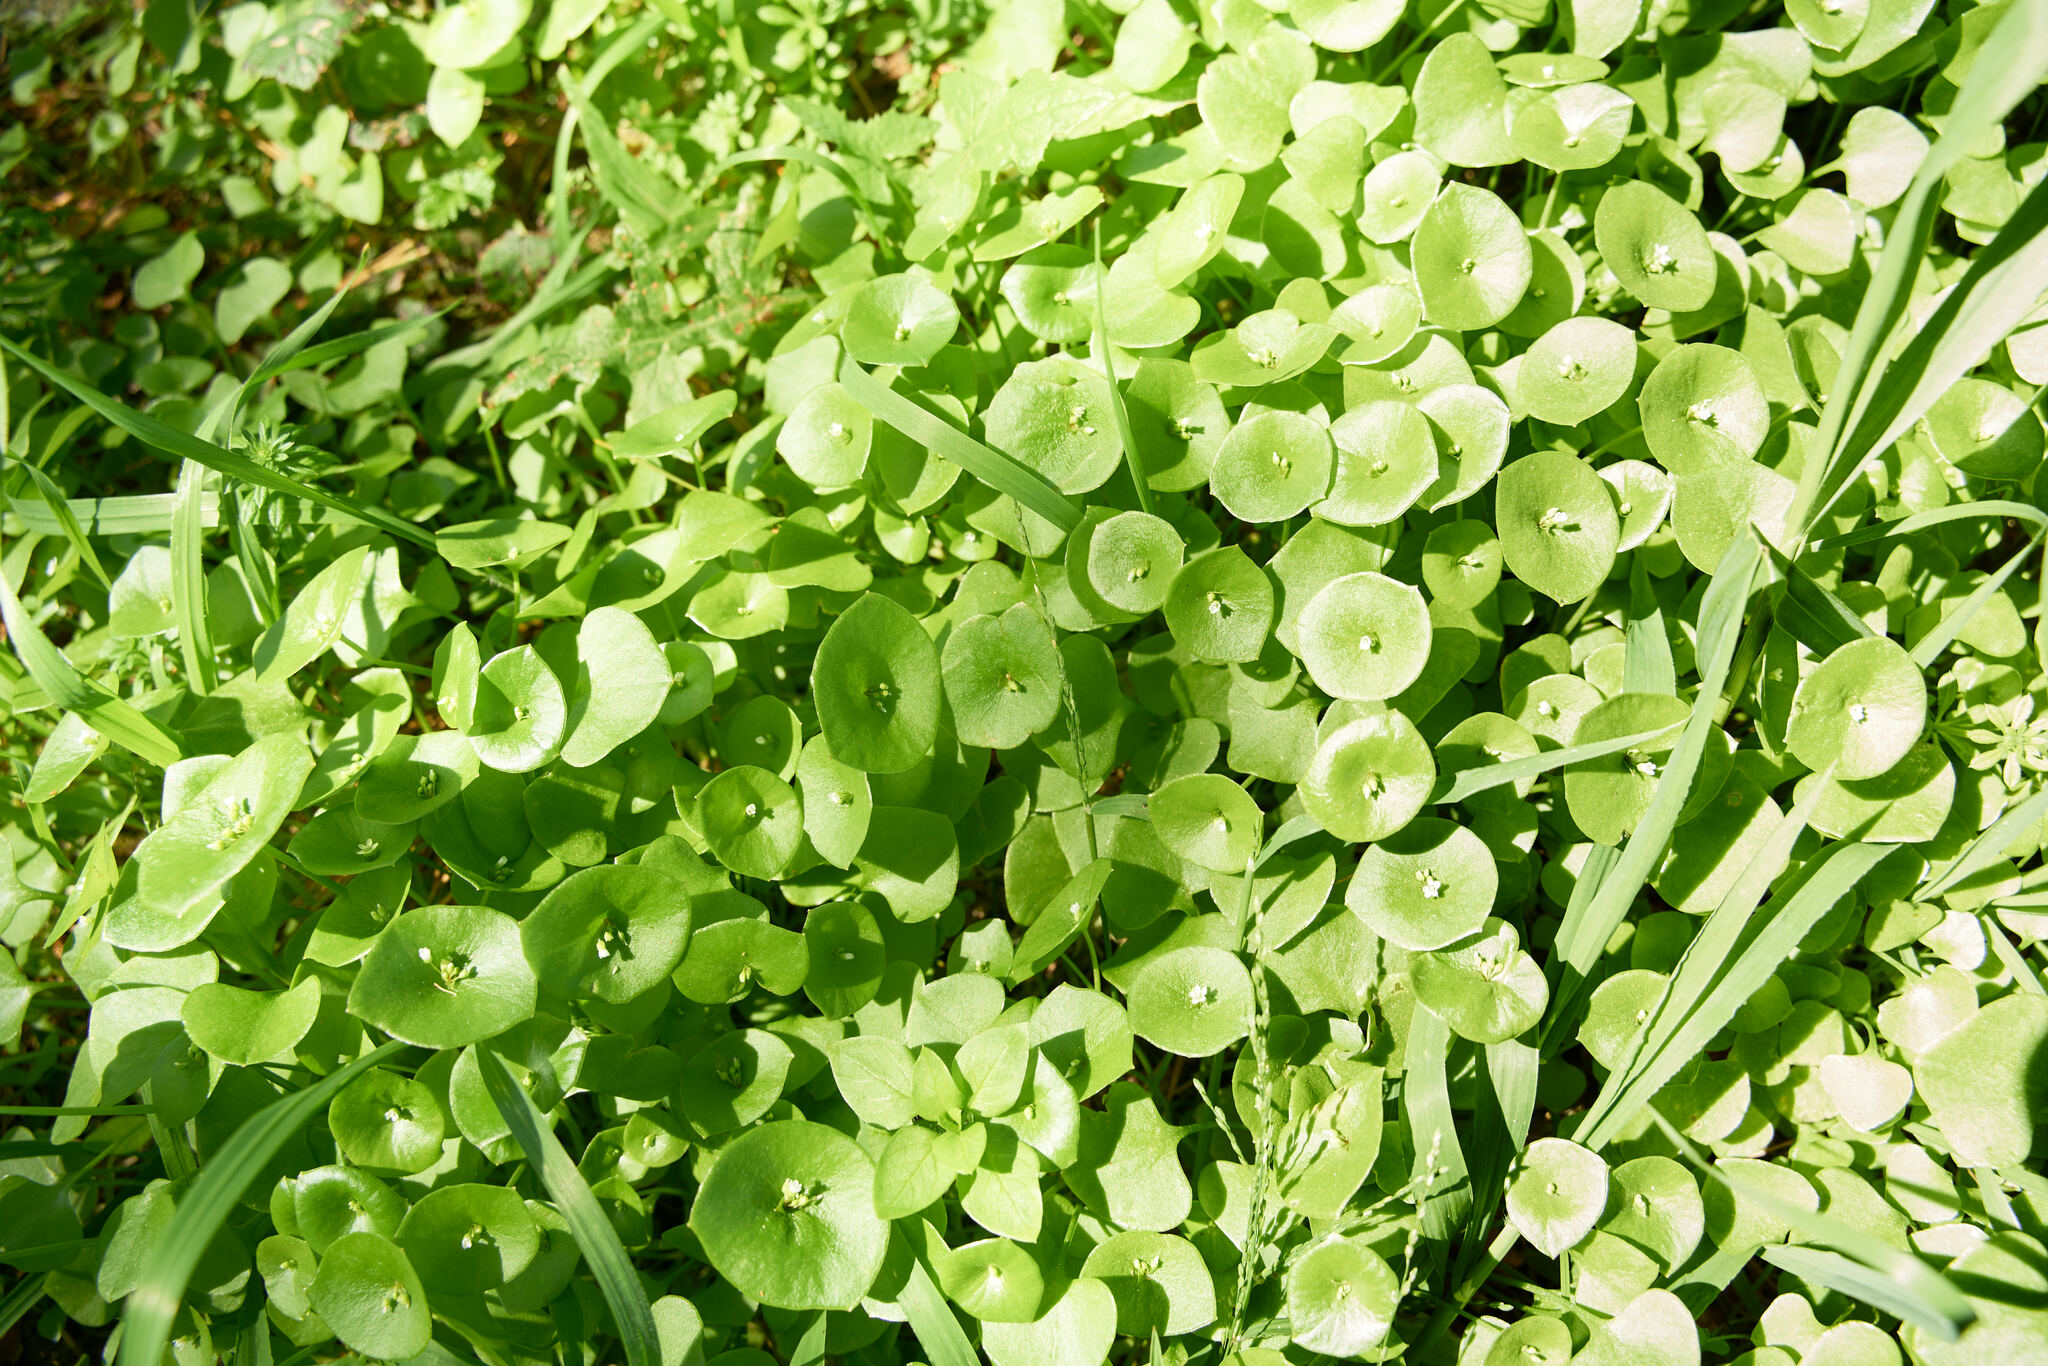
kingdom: Plantae
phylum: Tracheophyta
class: Magnoliopsida
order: Caryophyllales
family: Montiaceae
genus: Claytonia
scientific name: Claytonia perfoliata
